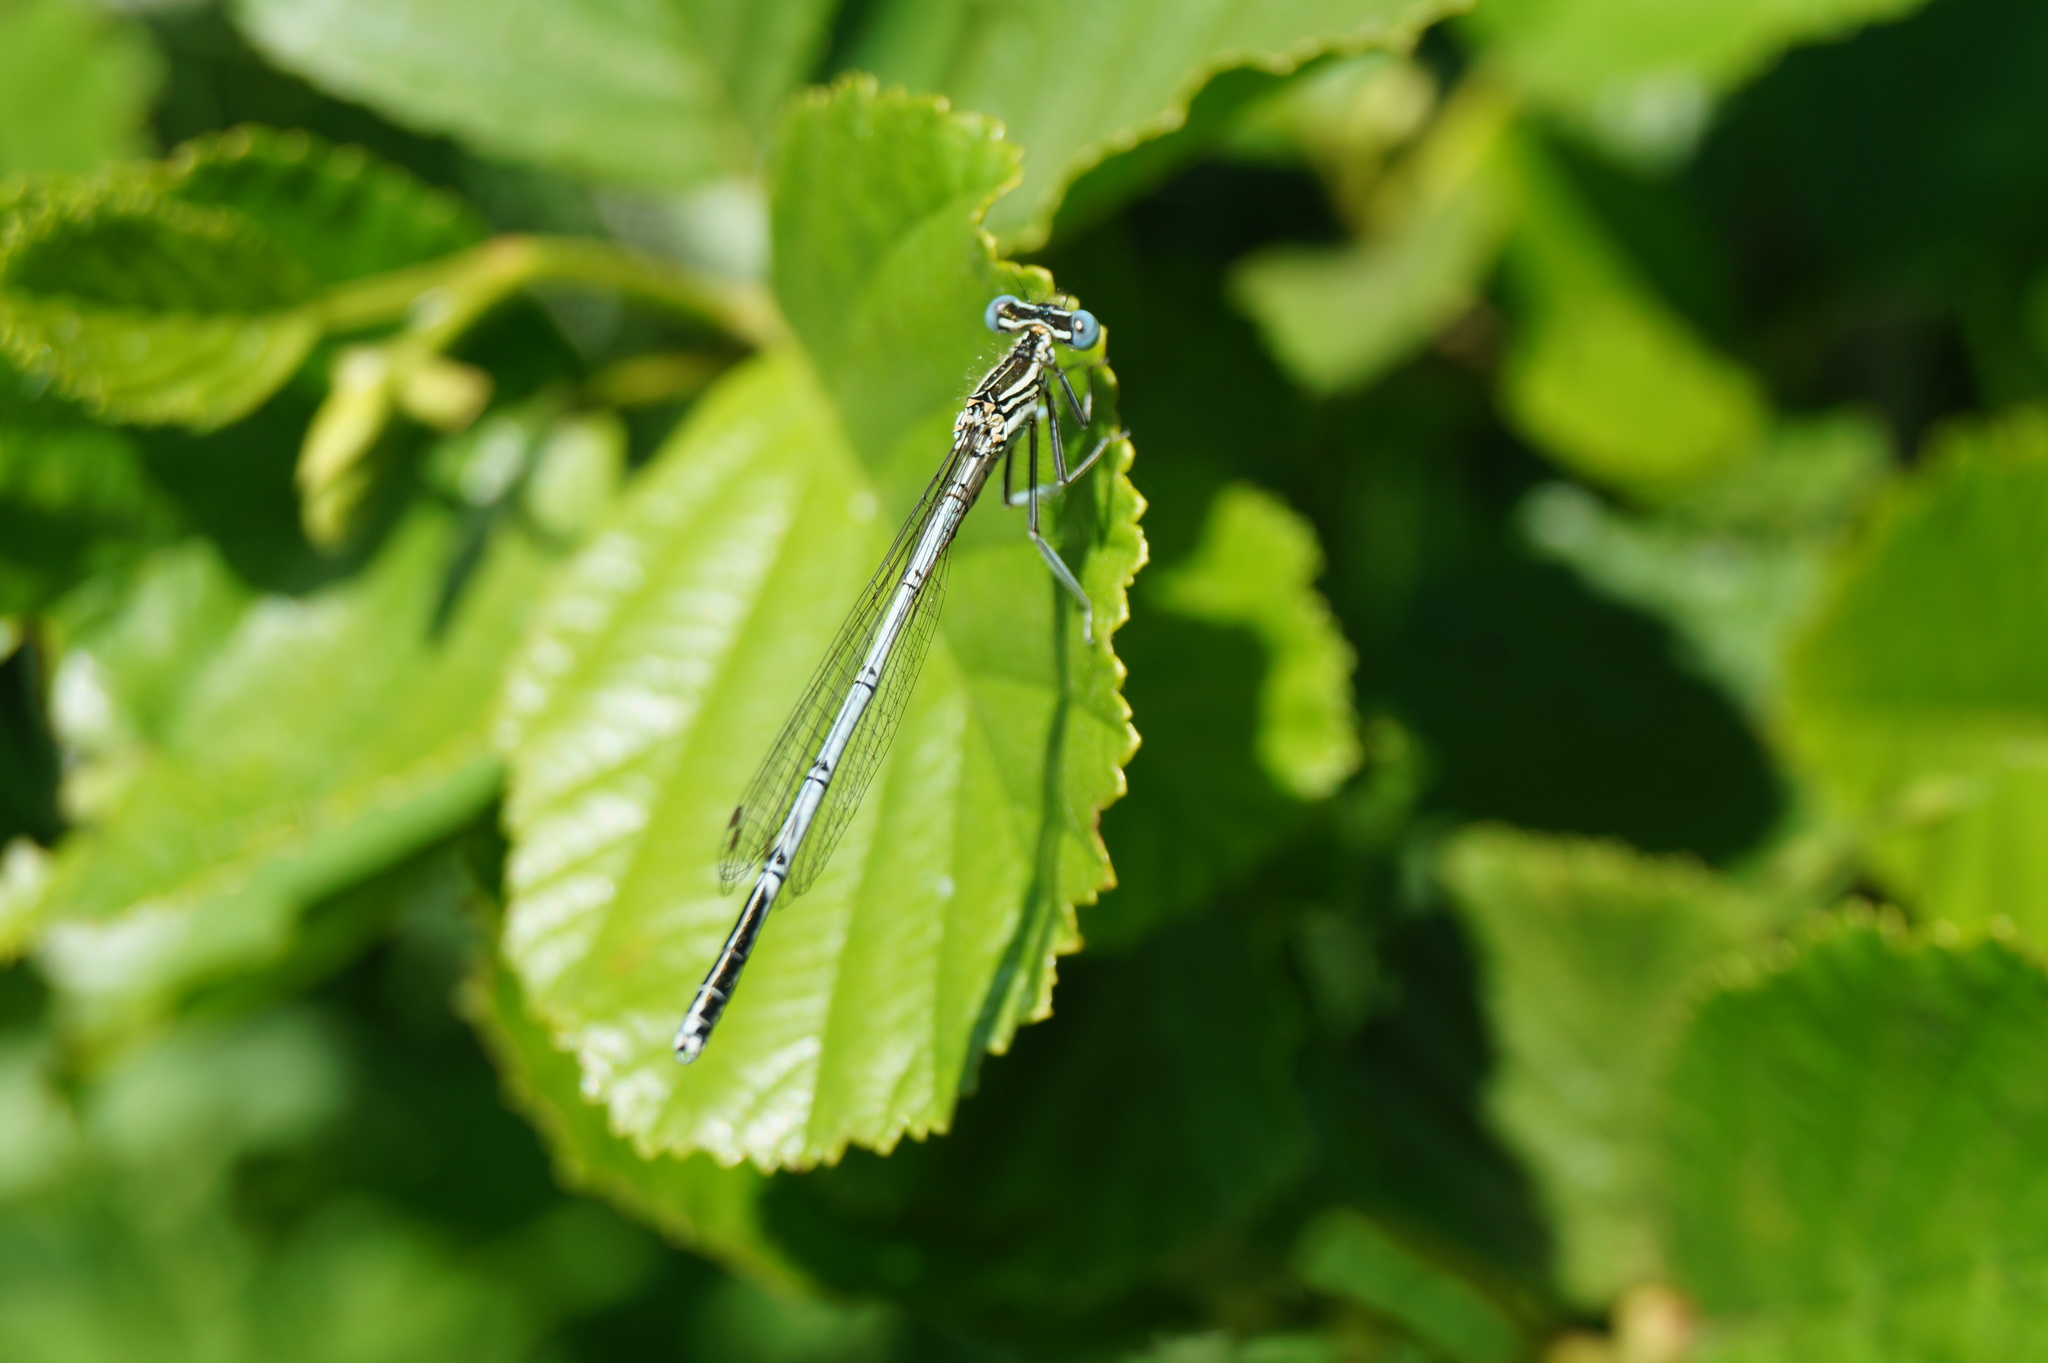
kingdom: Animalia
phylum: Arthropoda
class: Insecta
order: Odonata
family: Platycnemididae
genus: Platycnemis
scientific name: Platycnemis pennipes
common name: White-legged damselfly
